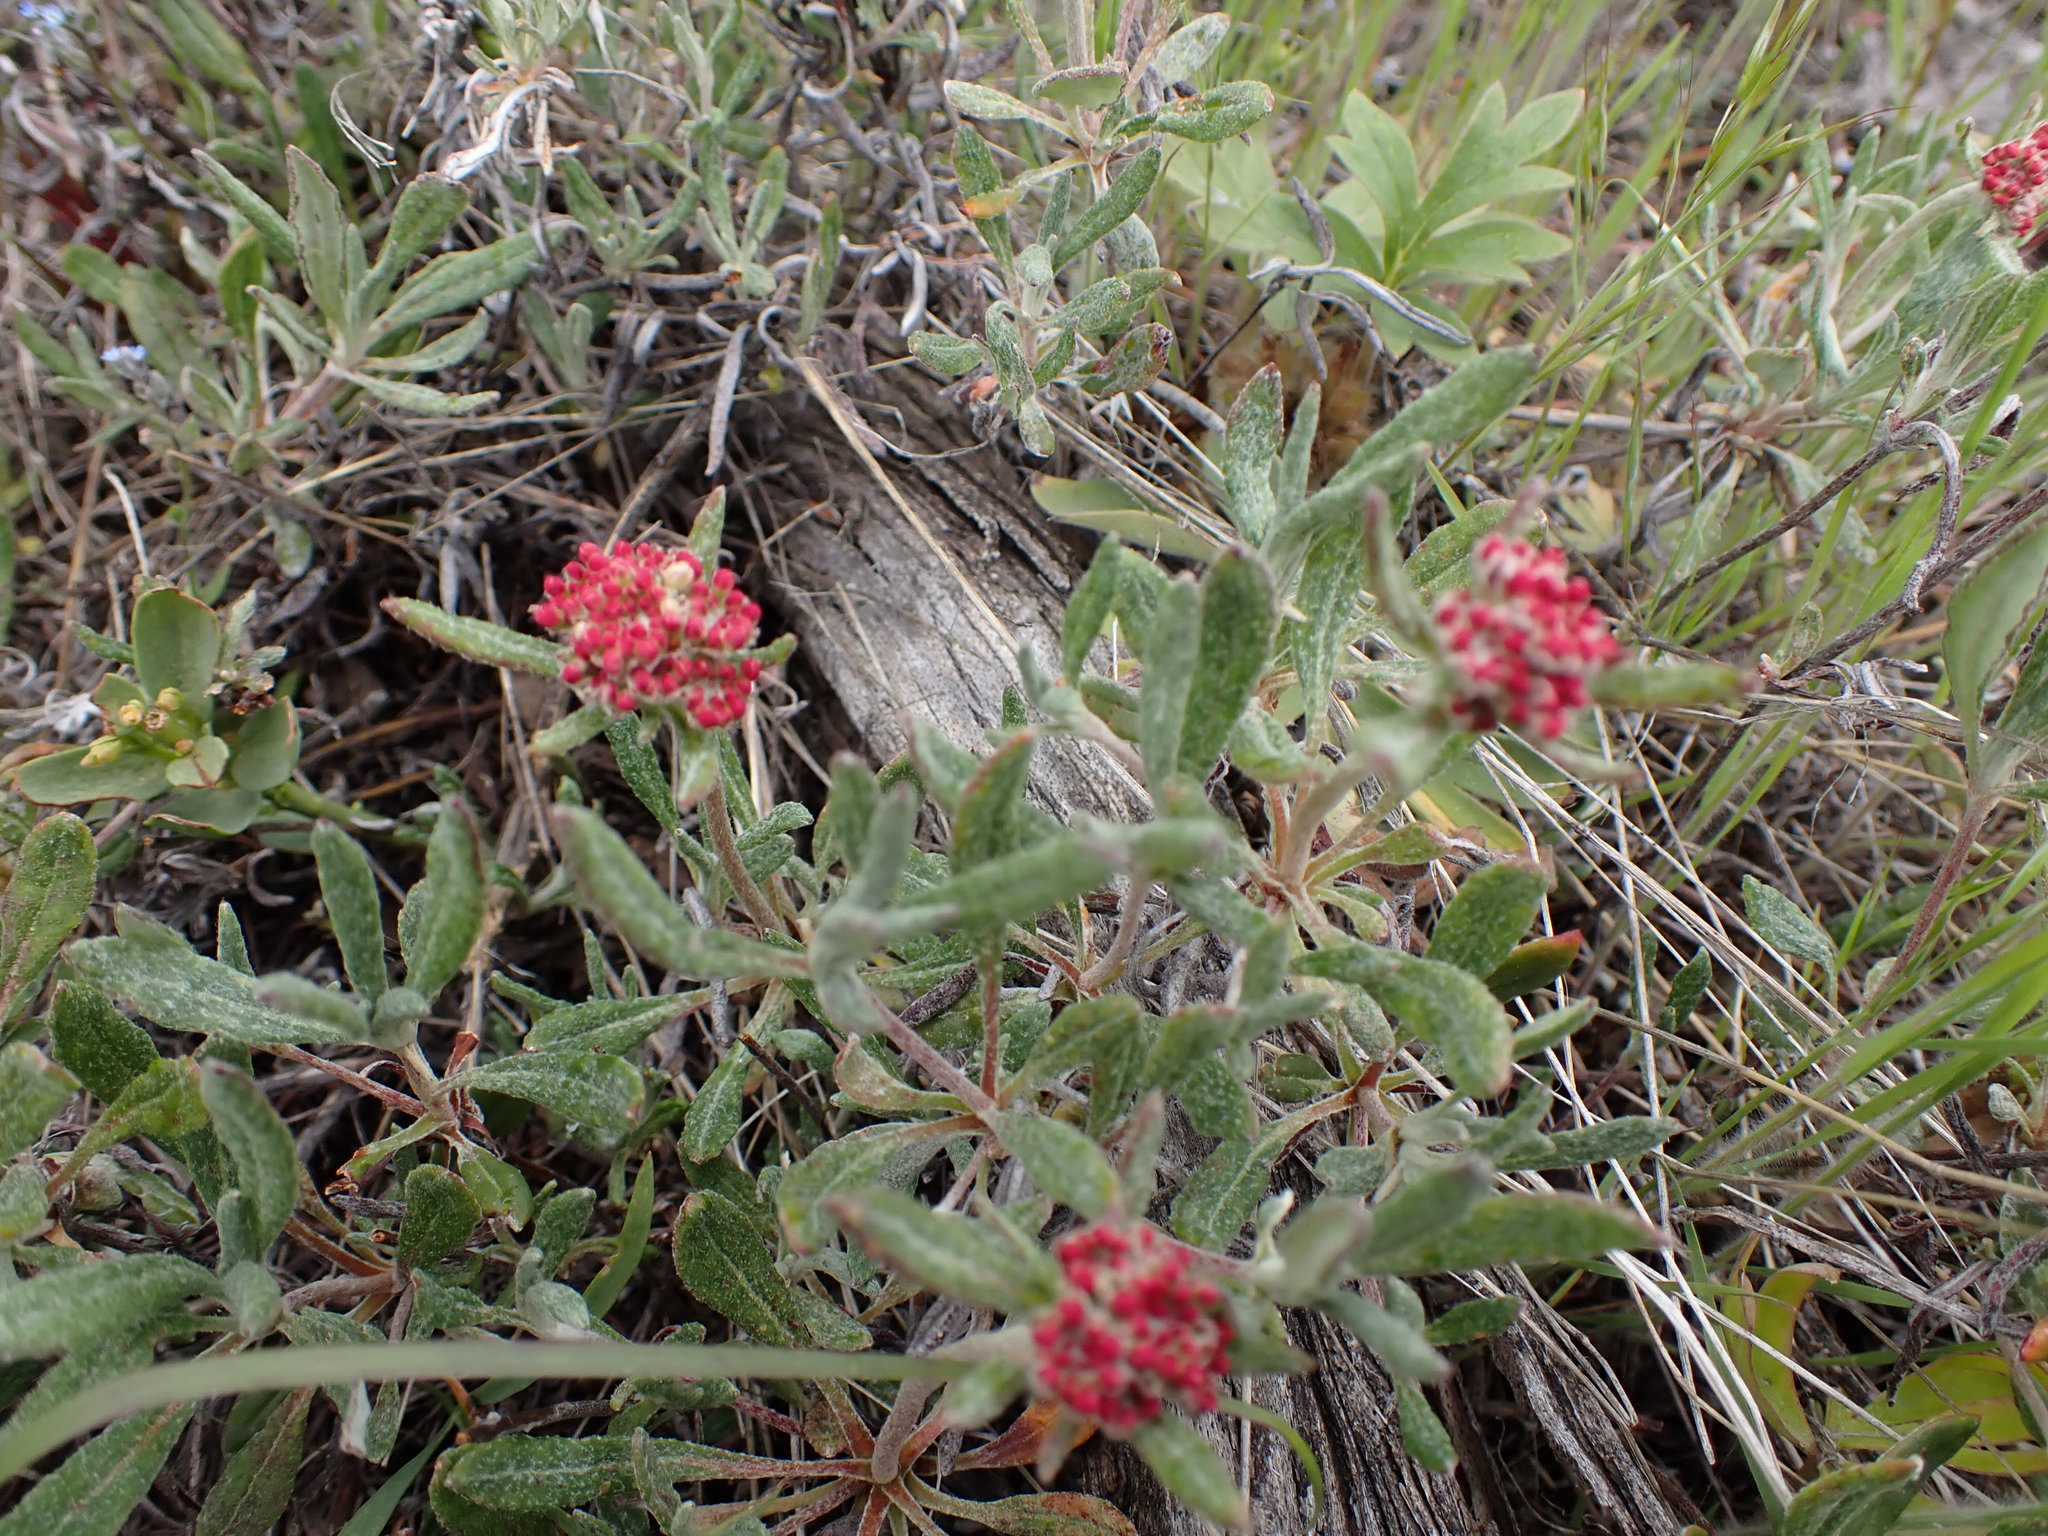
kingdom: Plantae
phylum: Tracheophyta
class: Magnoliopsida
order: Caryophyllales
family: Polygonaceae
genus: Eriogonum
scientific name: Eriogonum heracleoides
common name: Wyeth's buckwheat
